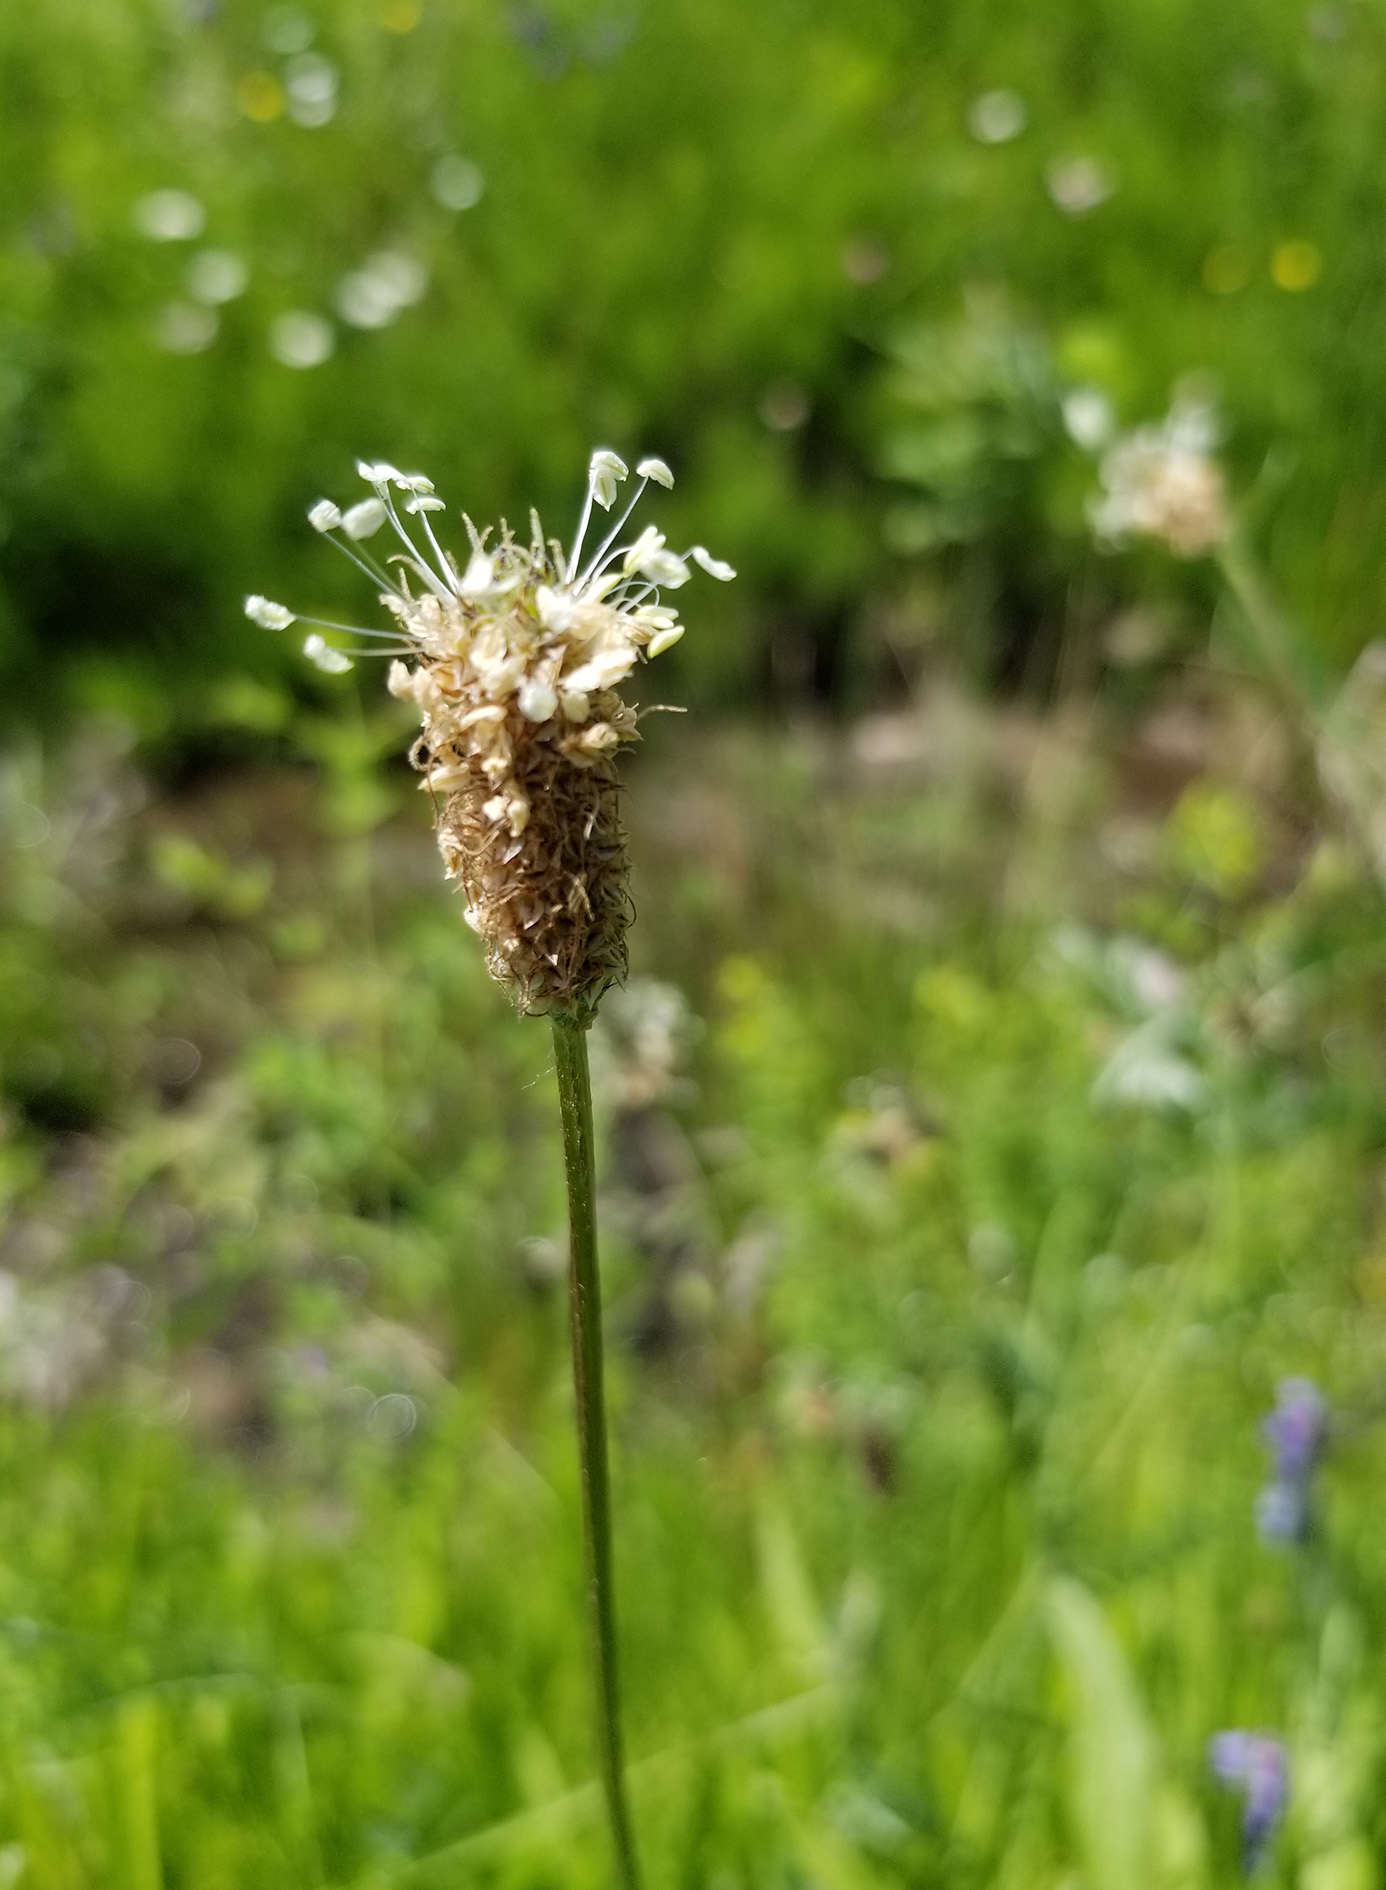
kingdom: Plantae
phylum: Tracheophyta
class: Magnoliopsida
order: Lamiales
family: Plantaginaceae
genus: Plantago
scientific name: Plantago lanceolata
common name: Ribwort plantain
